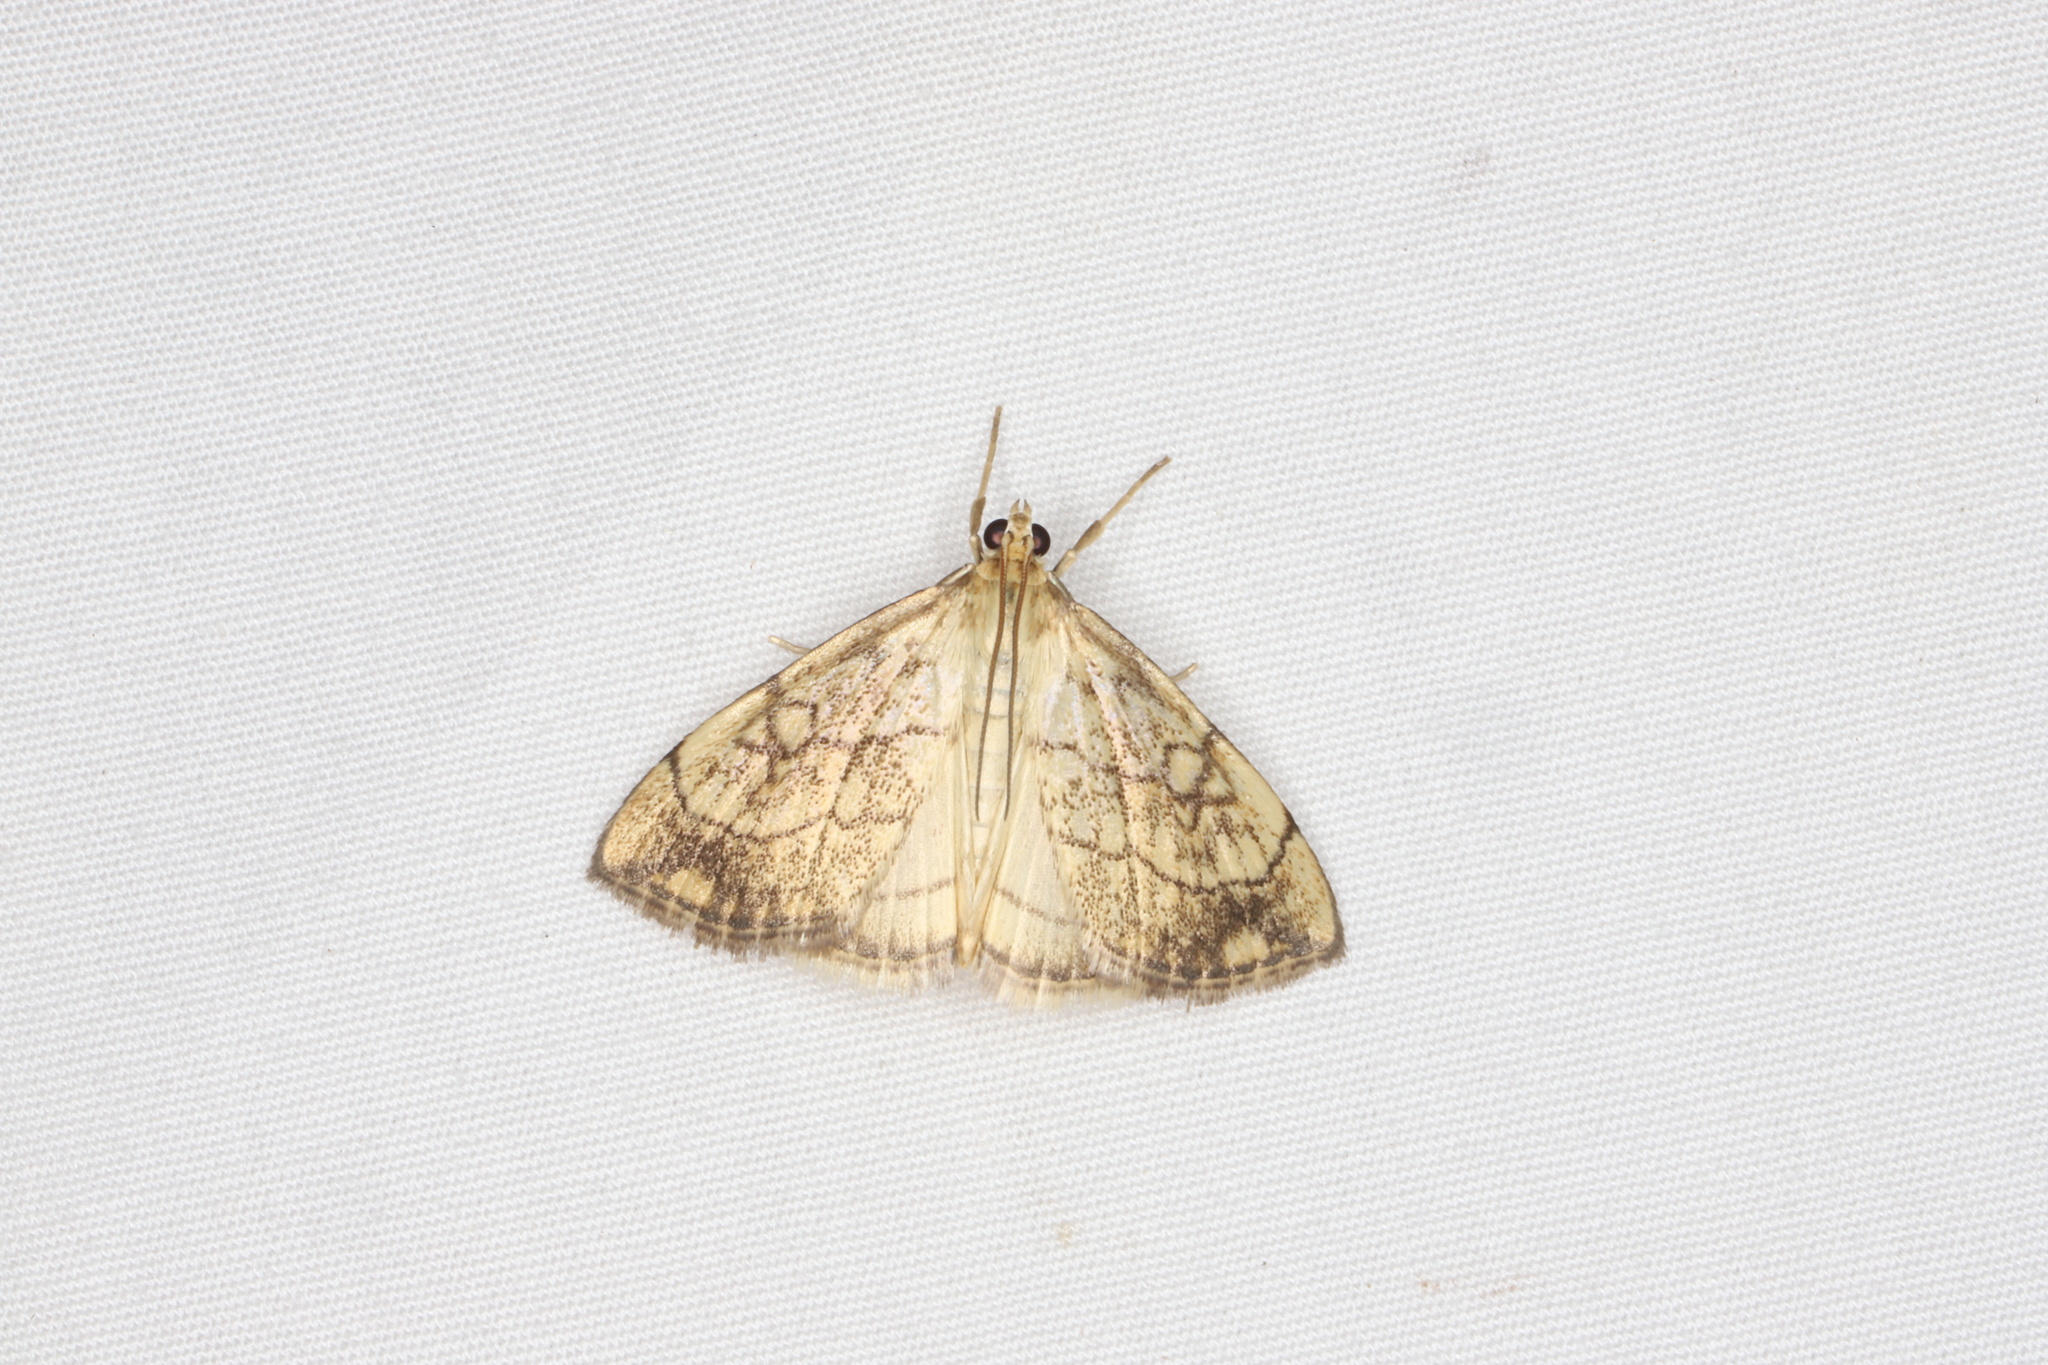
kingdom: Animalia
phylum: Arthropoda
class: Insecta
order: Lepidoptera
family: Crambidae
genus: Evergestis
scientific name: Evergestis pallidata
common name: Chequered pearl
